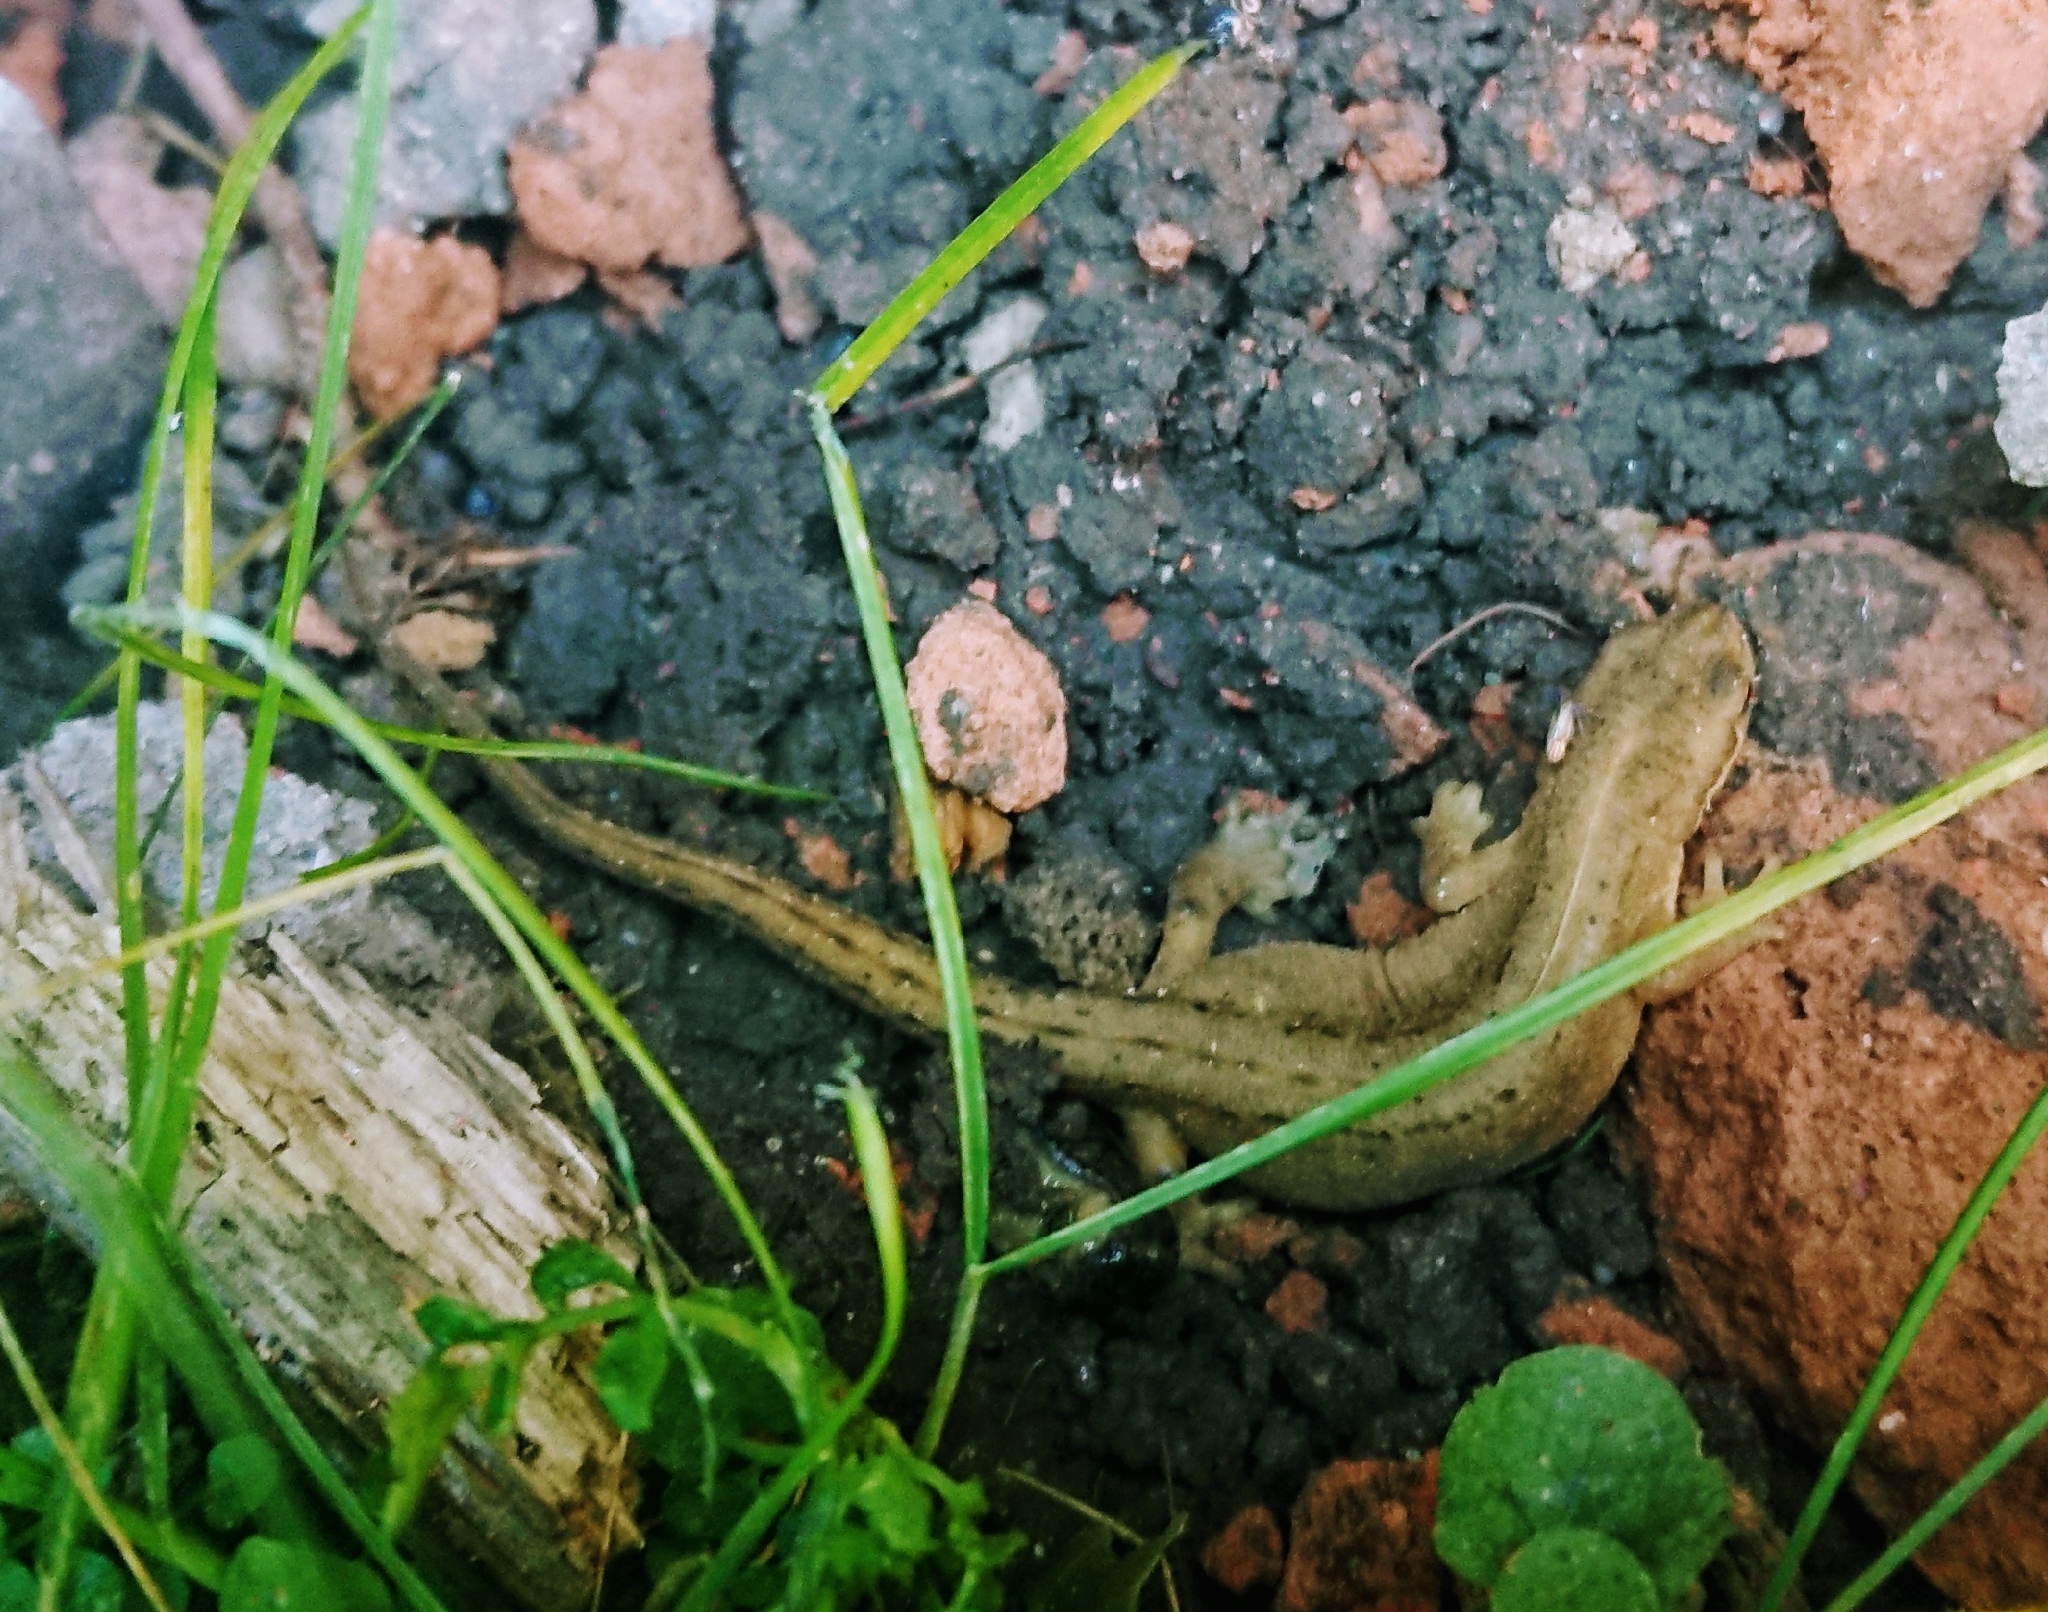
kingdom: Animalia
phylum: Chordata
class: Amphibia
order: Caudata
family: Salamandridae
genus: Lissotriton
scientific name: Lissotriton vulgaris
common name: Smooth newt
